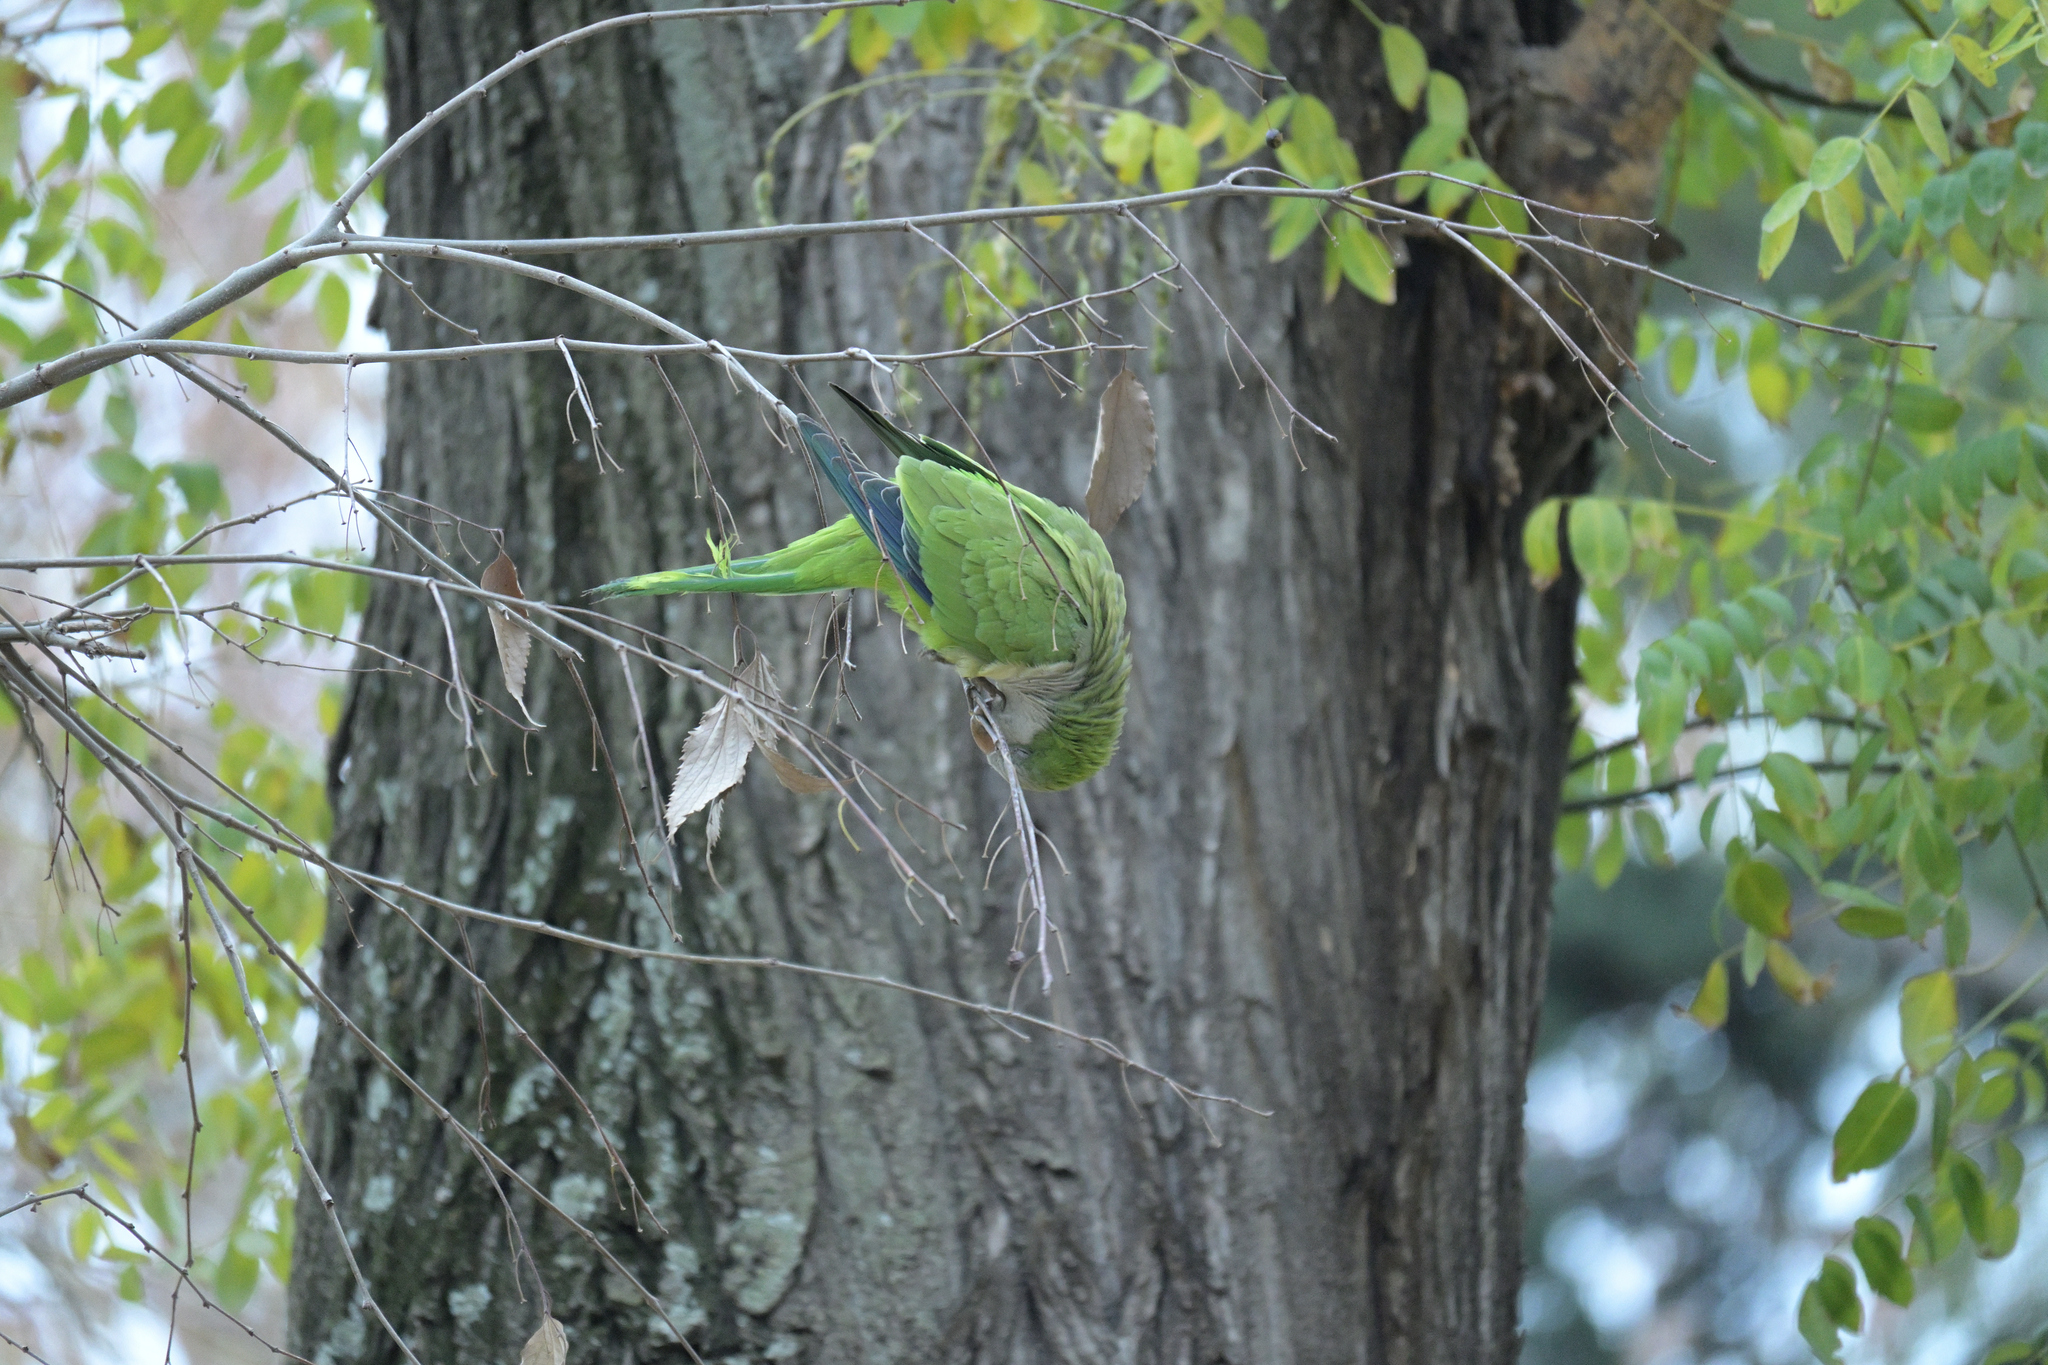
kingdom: Animalia
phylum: Chordata
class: Aves
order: Psittaciformes
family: Psittacidae
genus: Myiopsitta
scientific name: Myiopsitta monachus
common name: Monk parakeet
